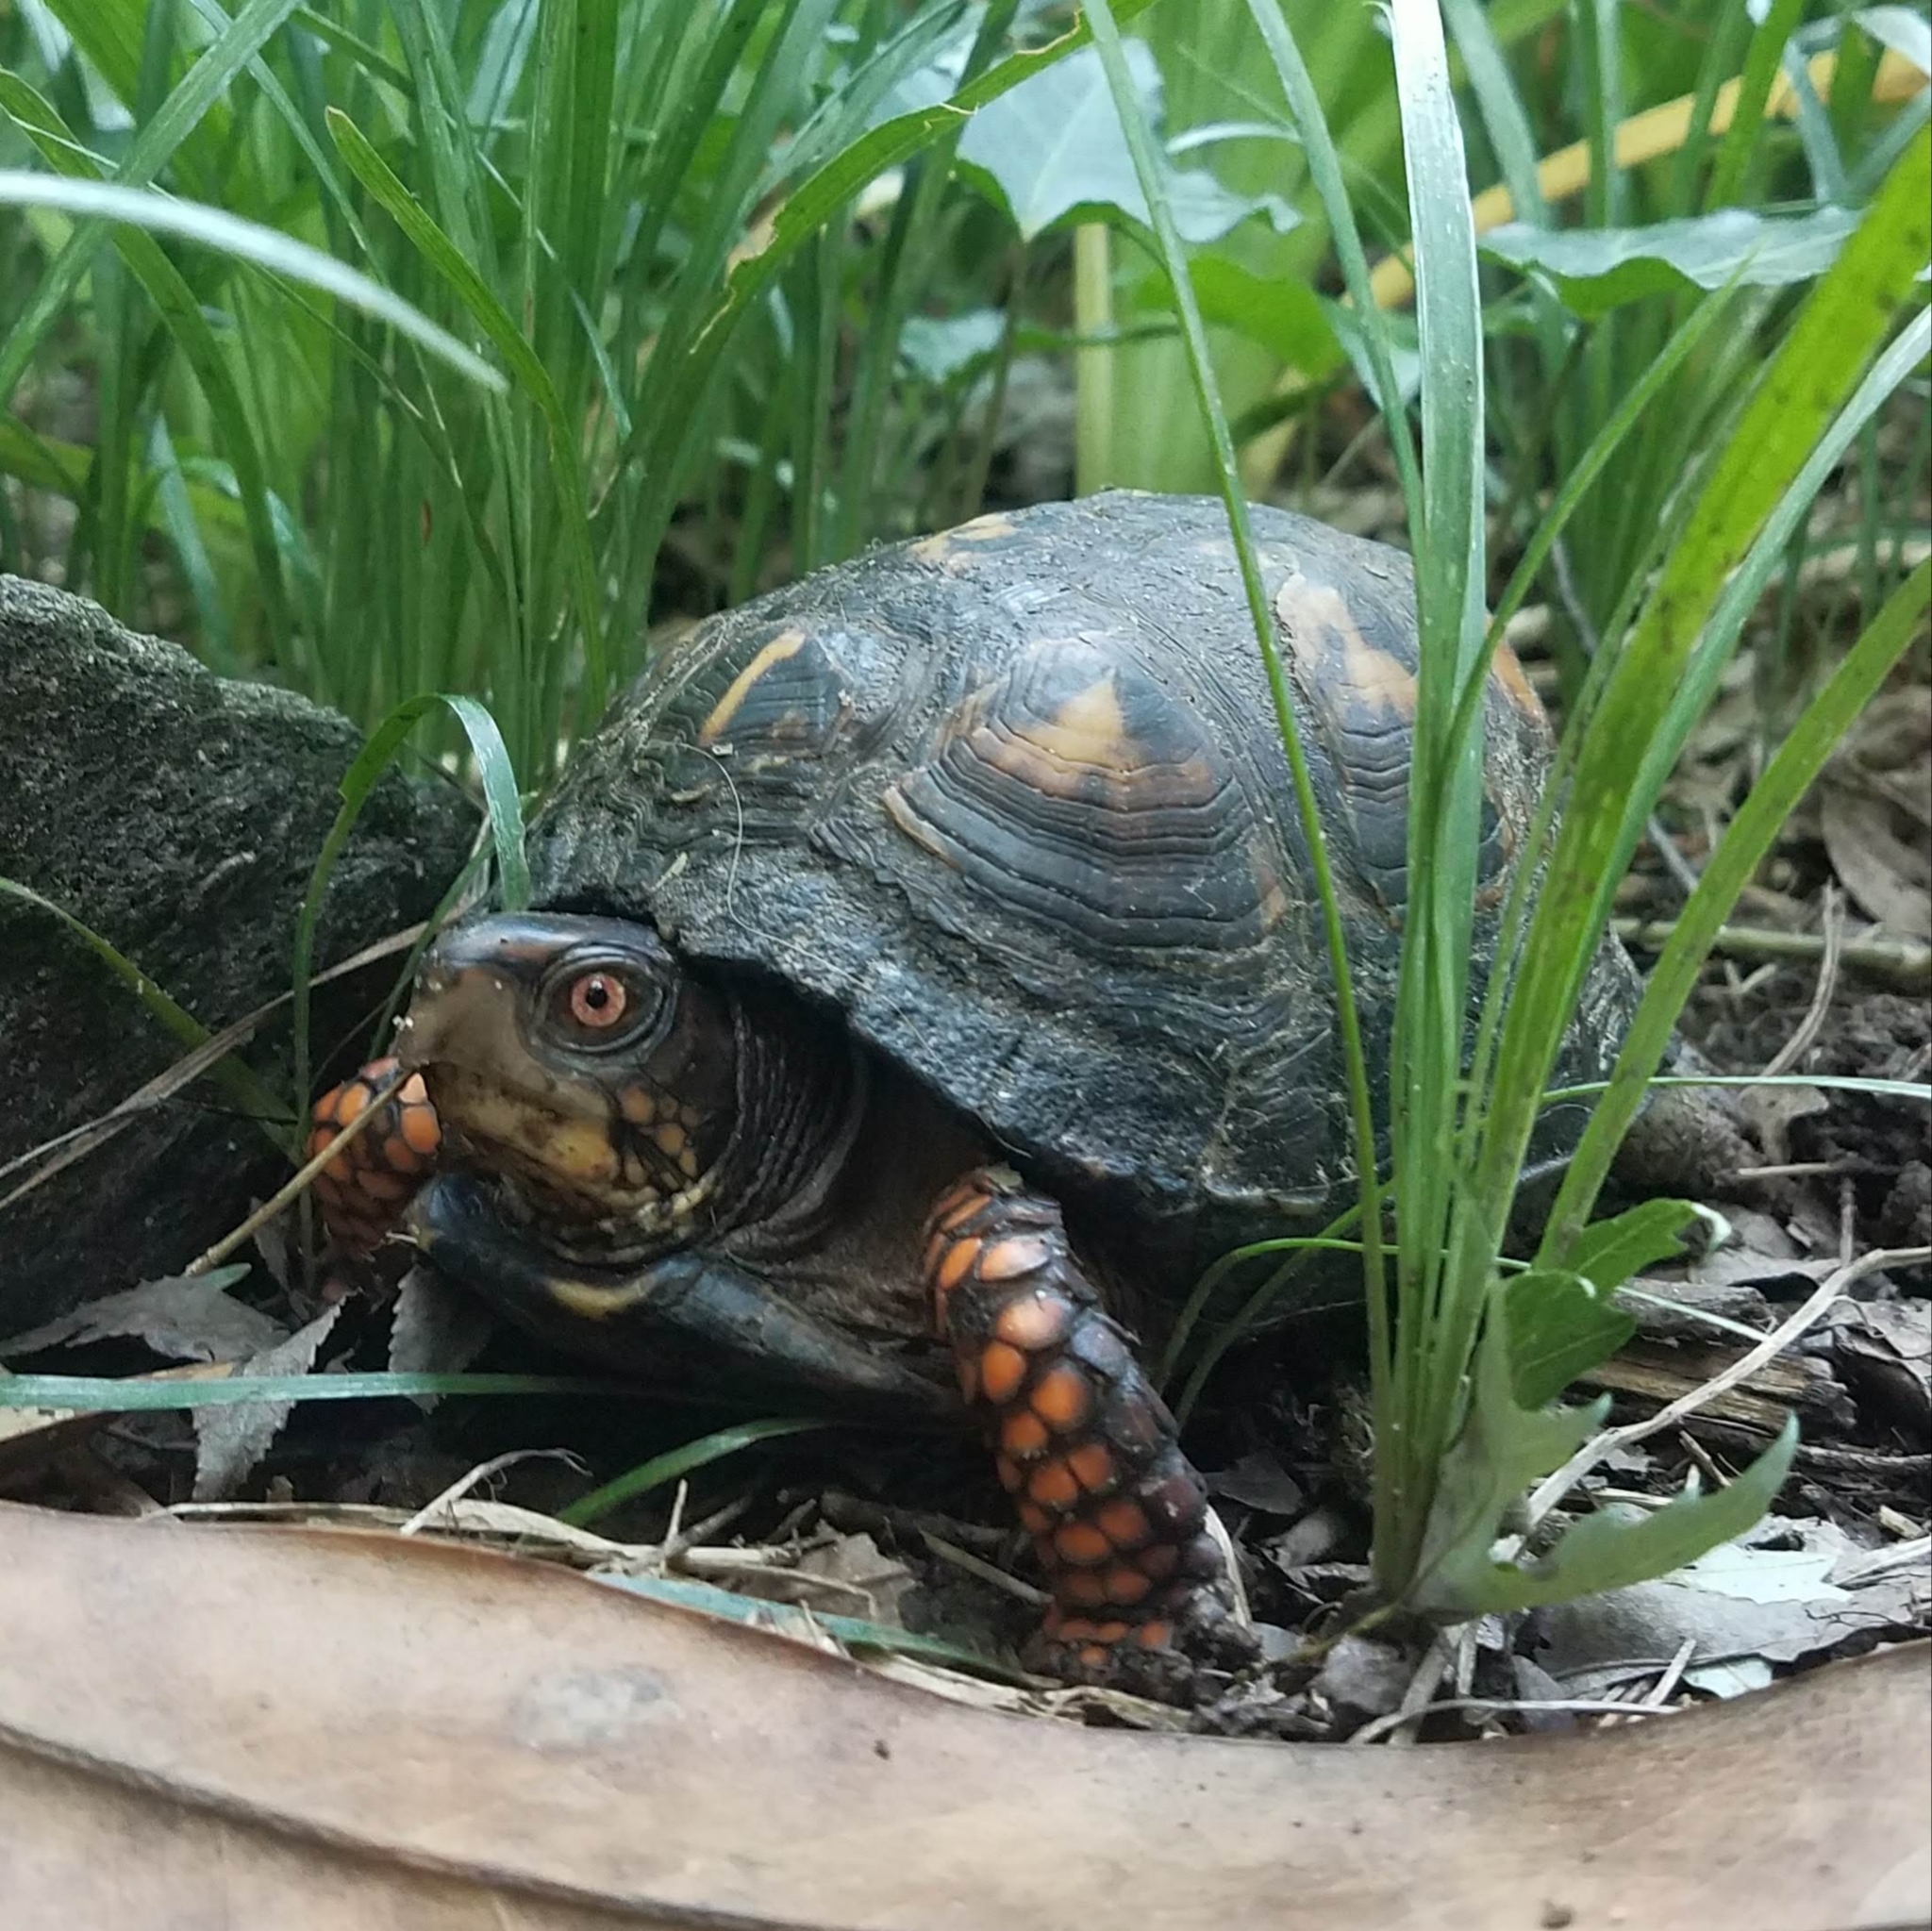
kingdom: Animalia
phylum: Chordata
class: Testudines
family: Emydidae
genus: Terrapene
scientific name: Terrapene carolina
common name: Common box turtle
